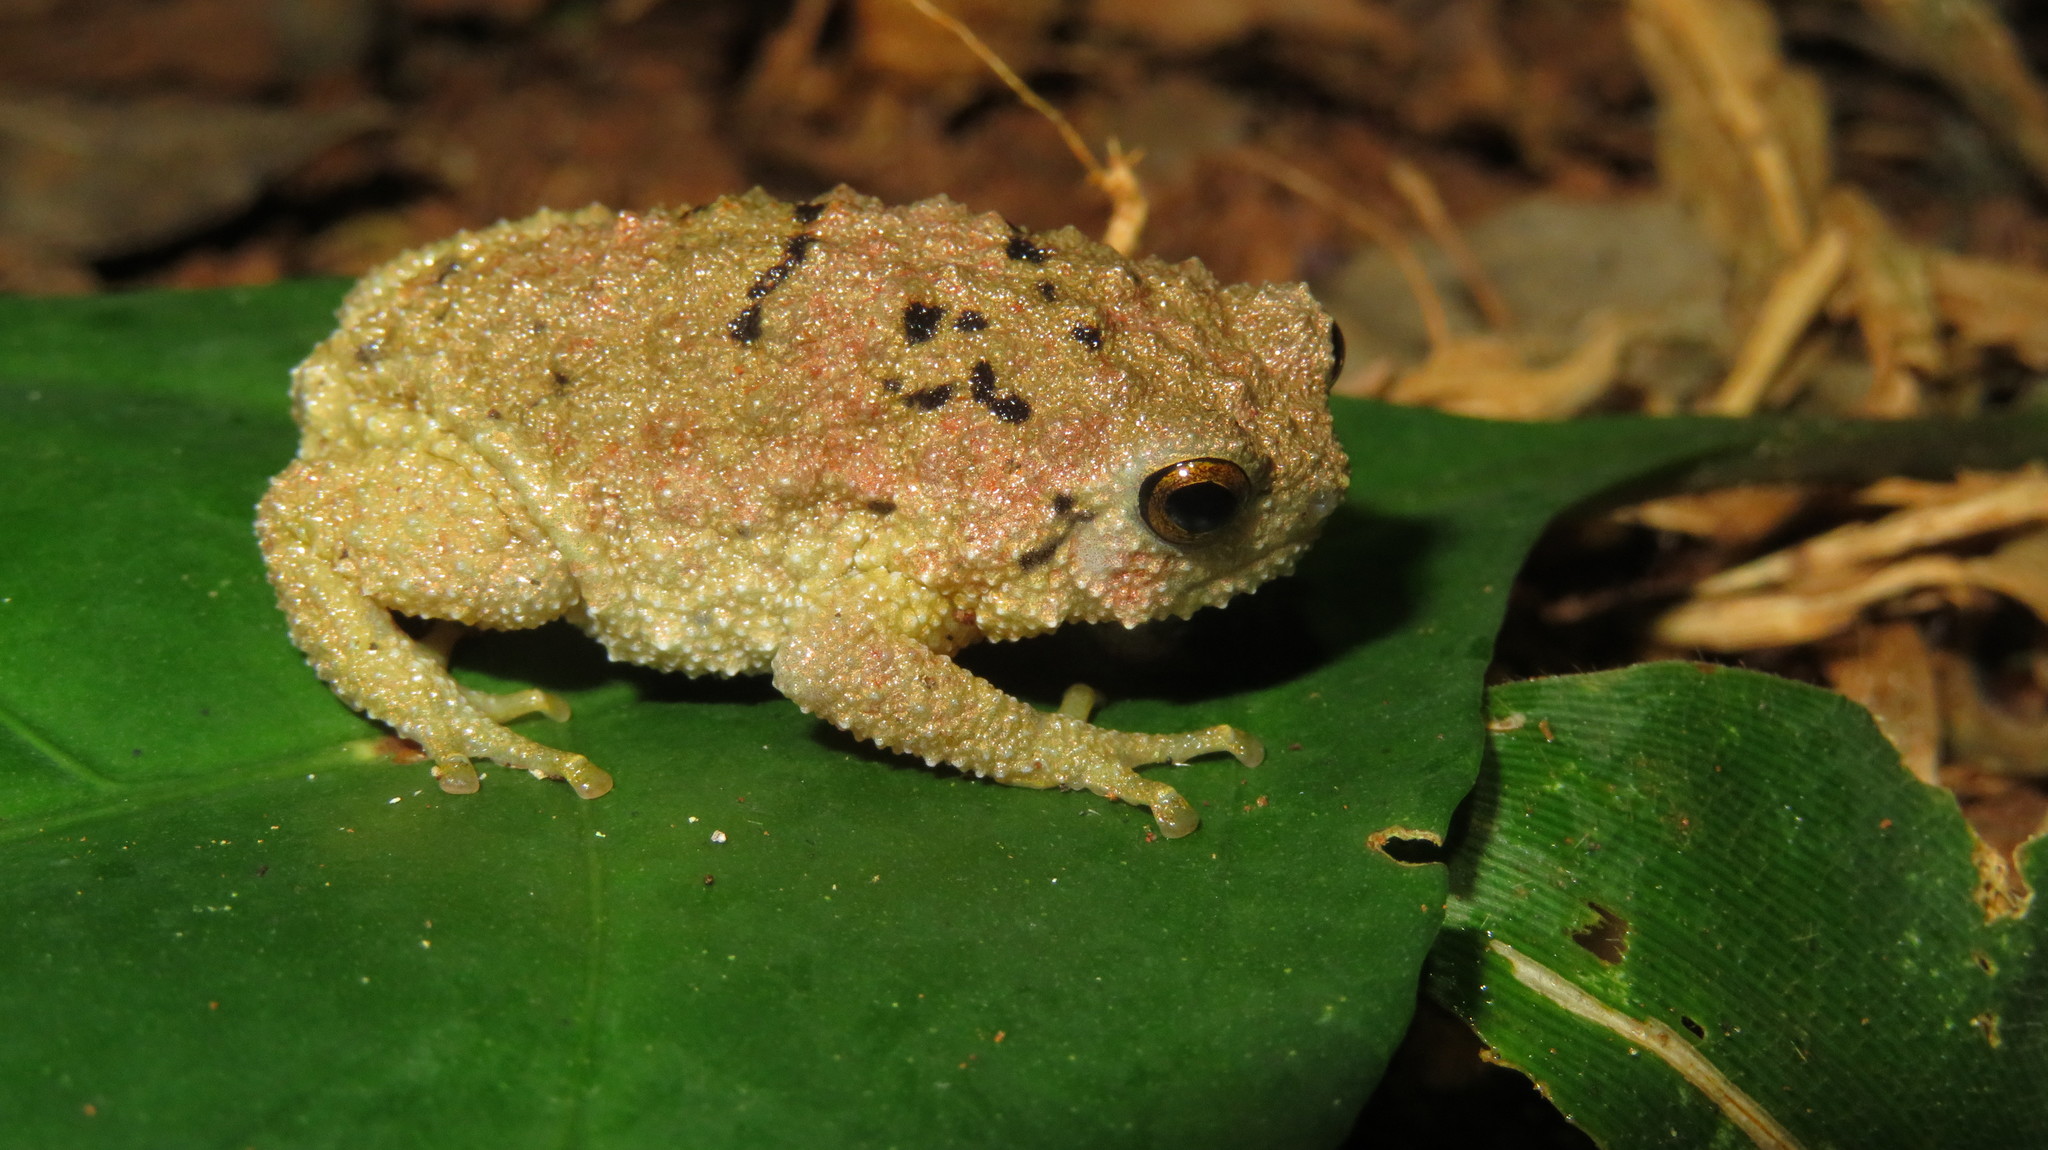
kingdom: Animalia
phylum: Chordata
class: Amphibia
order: Anura
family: Brevicipitidae
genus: Callulina
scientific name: Callulina kreffti
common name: Krefft's warty frog
